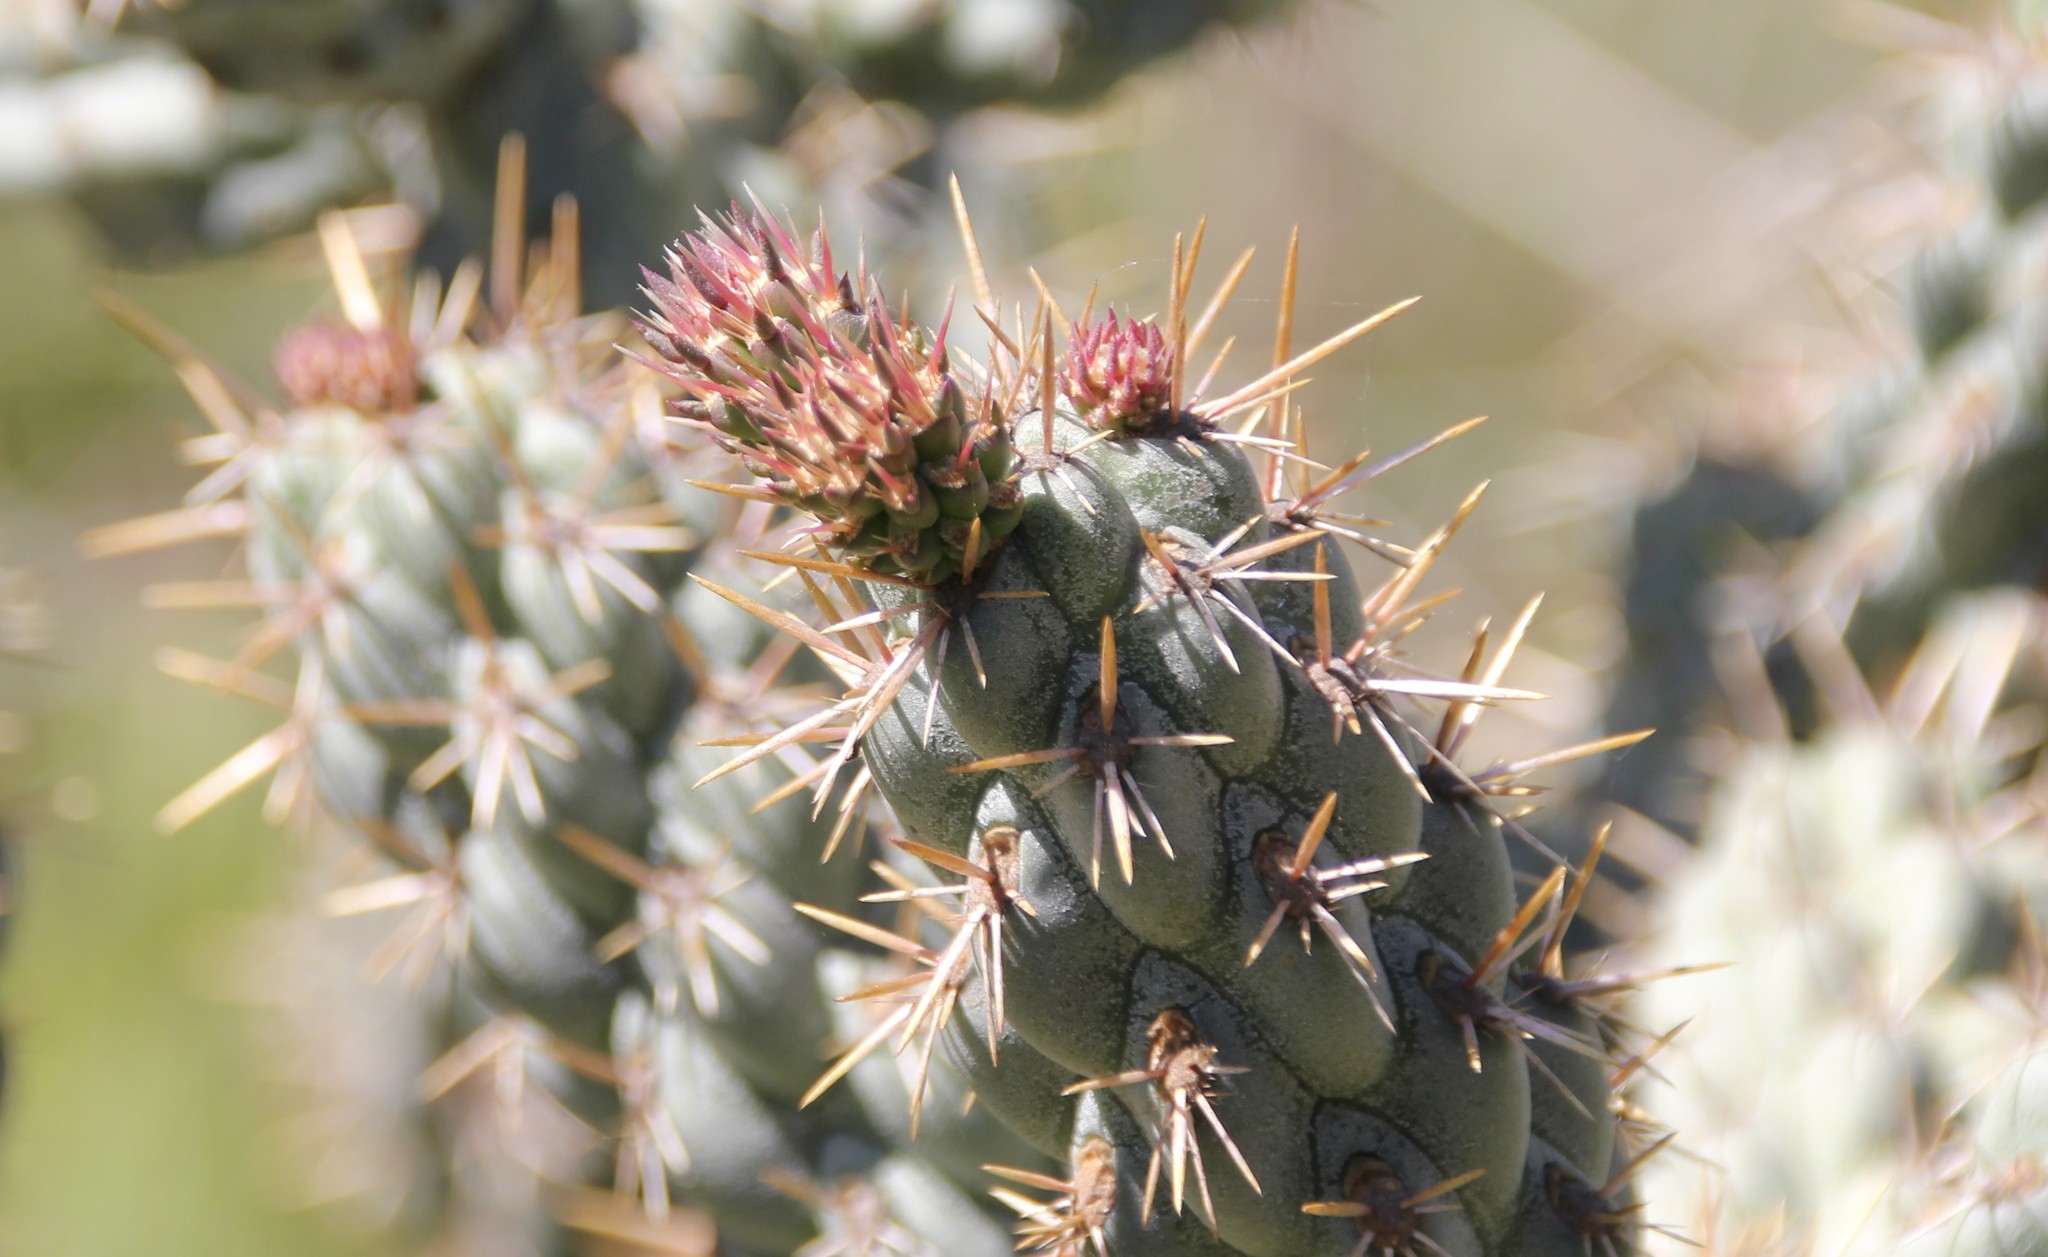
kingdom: Plantae
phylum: Tracheophyta
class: Magnoliopsida
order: Caryophyllales
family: Cactaceae
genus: Cylindropuntia
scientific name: Cylindropuntia prolifera
